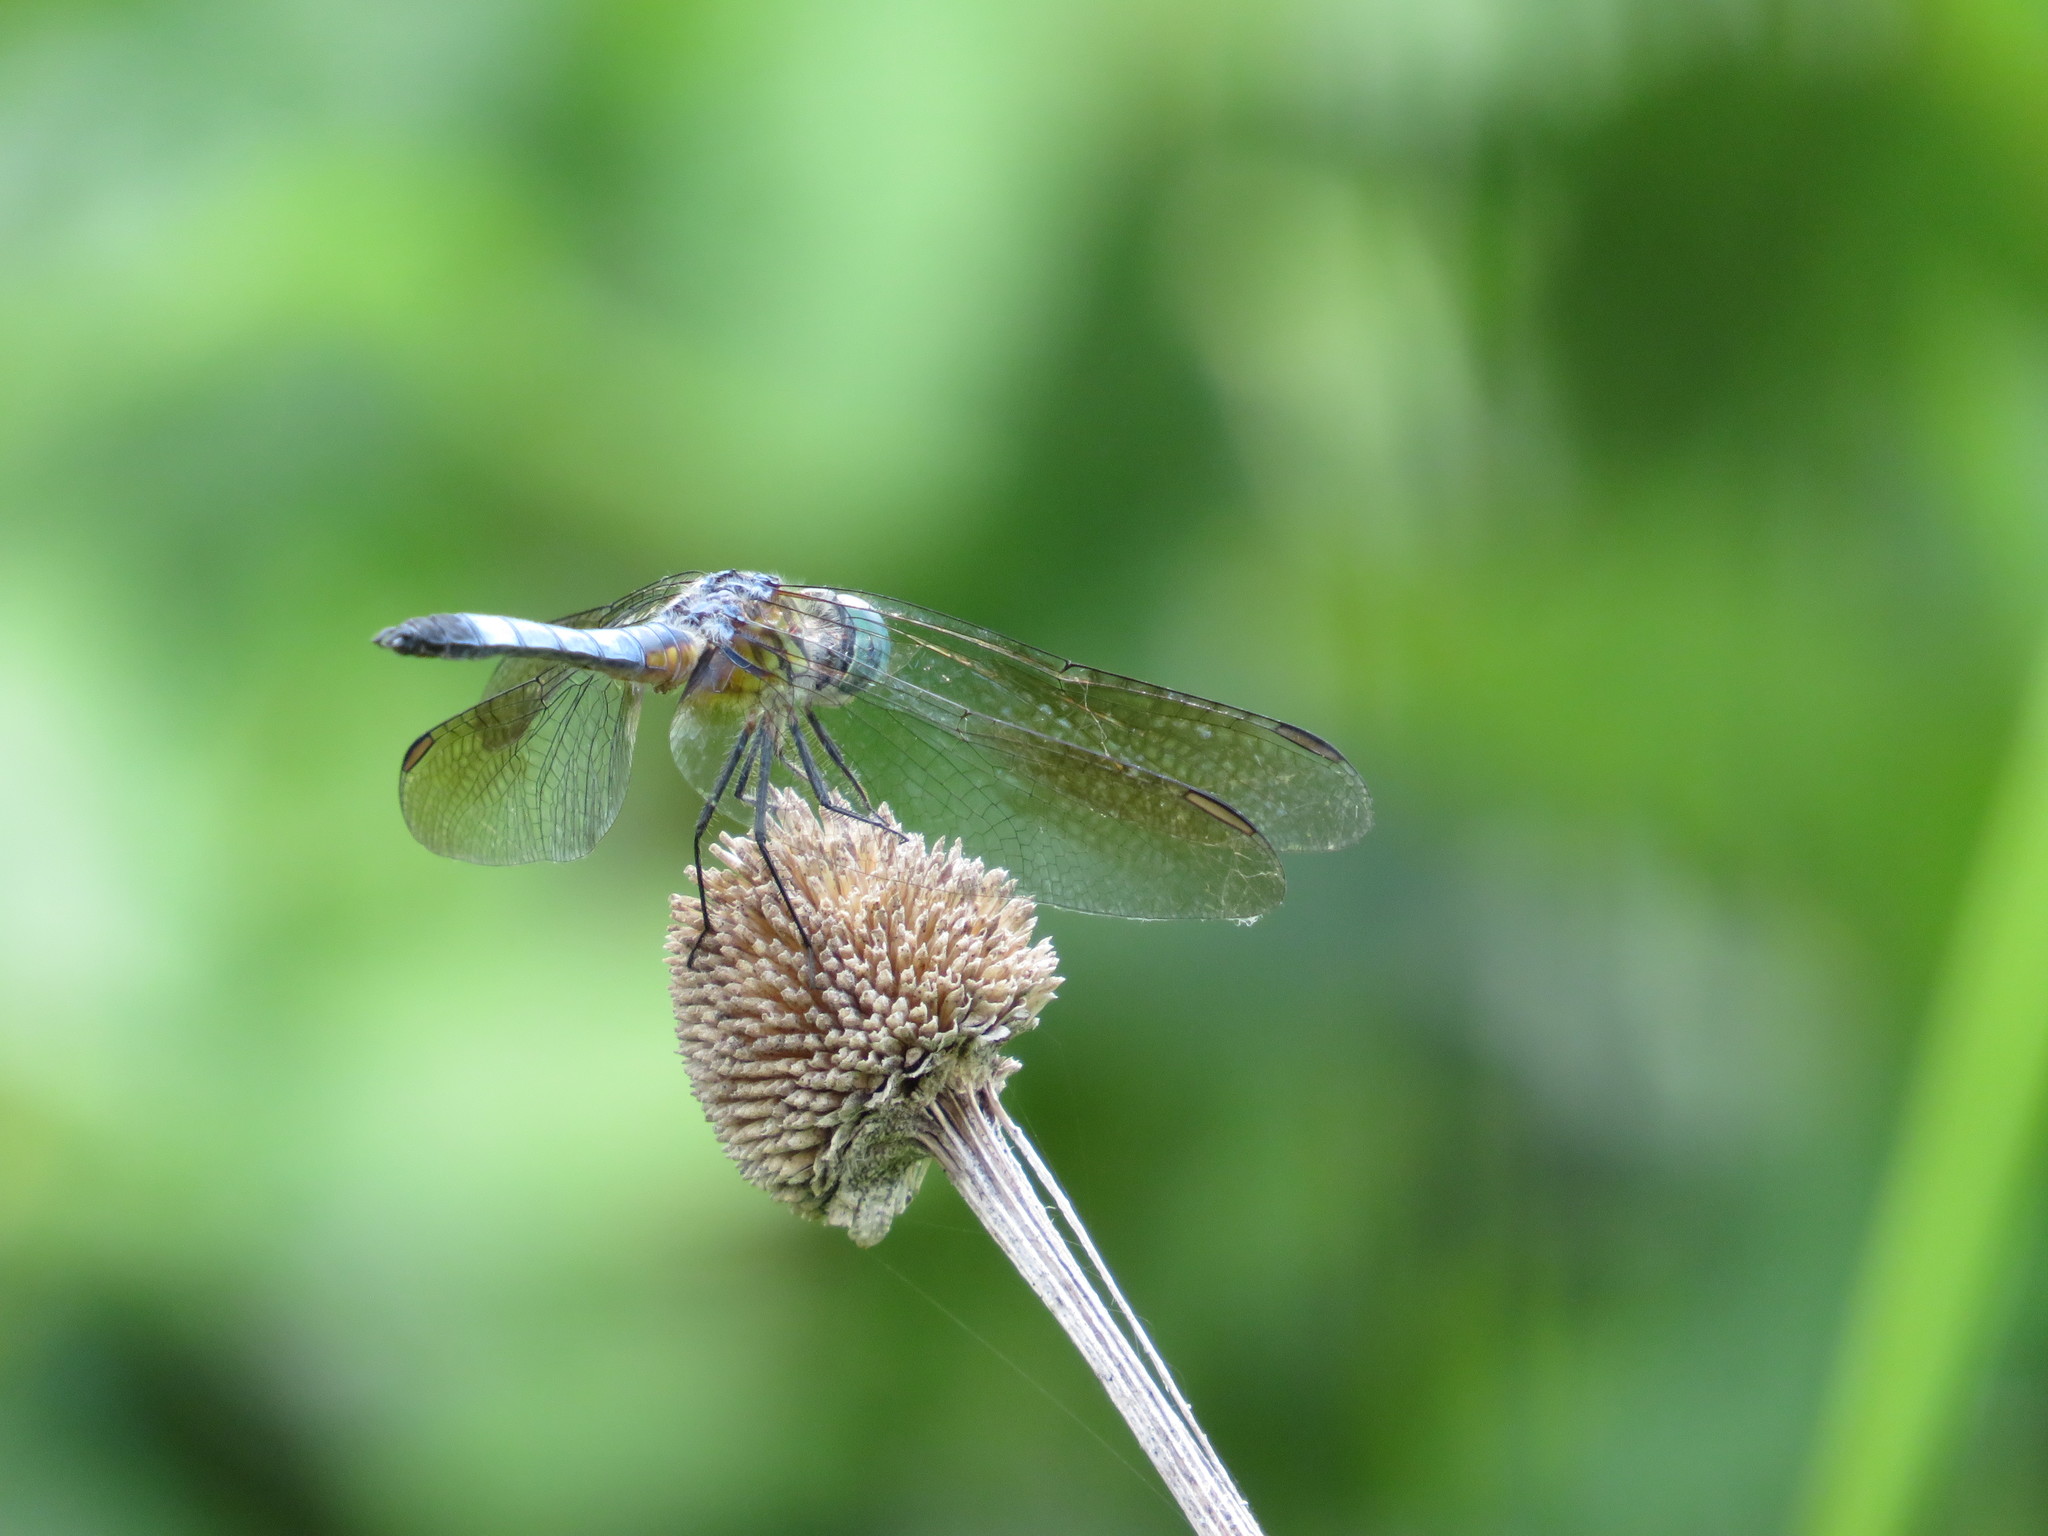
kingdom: Animalia
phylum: Arthropoda
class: Insecta
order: Odonata
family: Libellulidae
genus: Pachydiplax
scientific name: Pachydiplax longipennis
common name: Blue dasher
